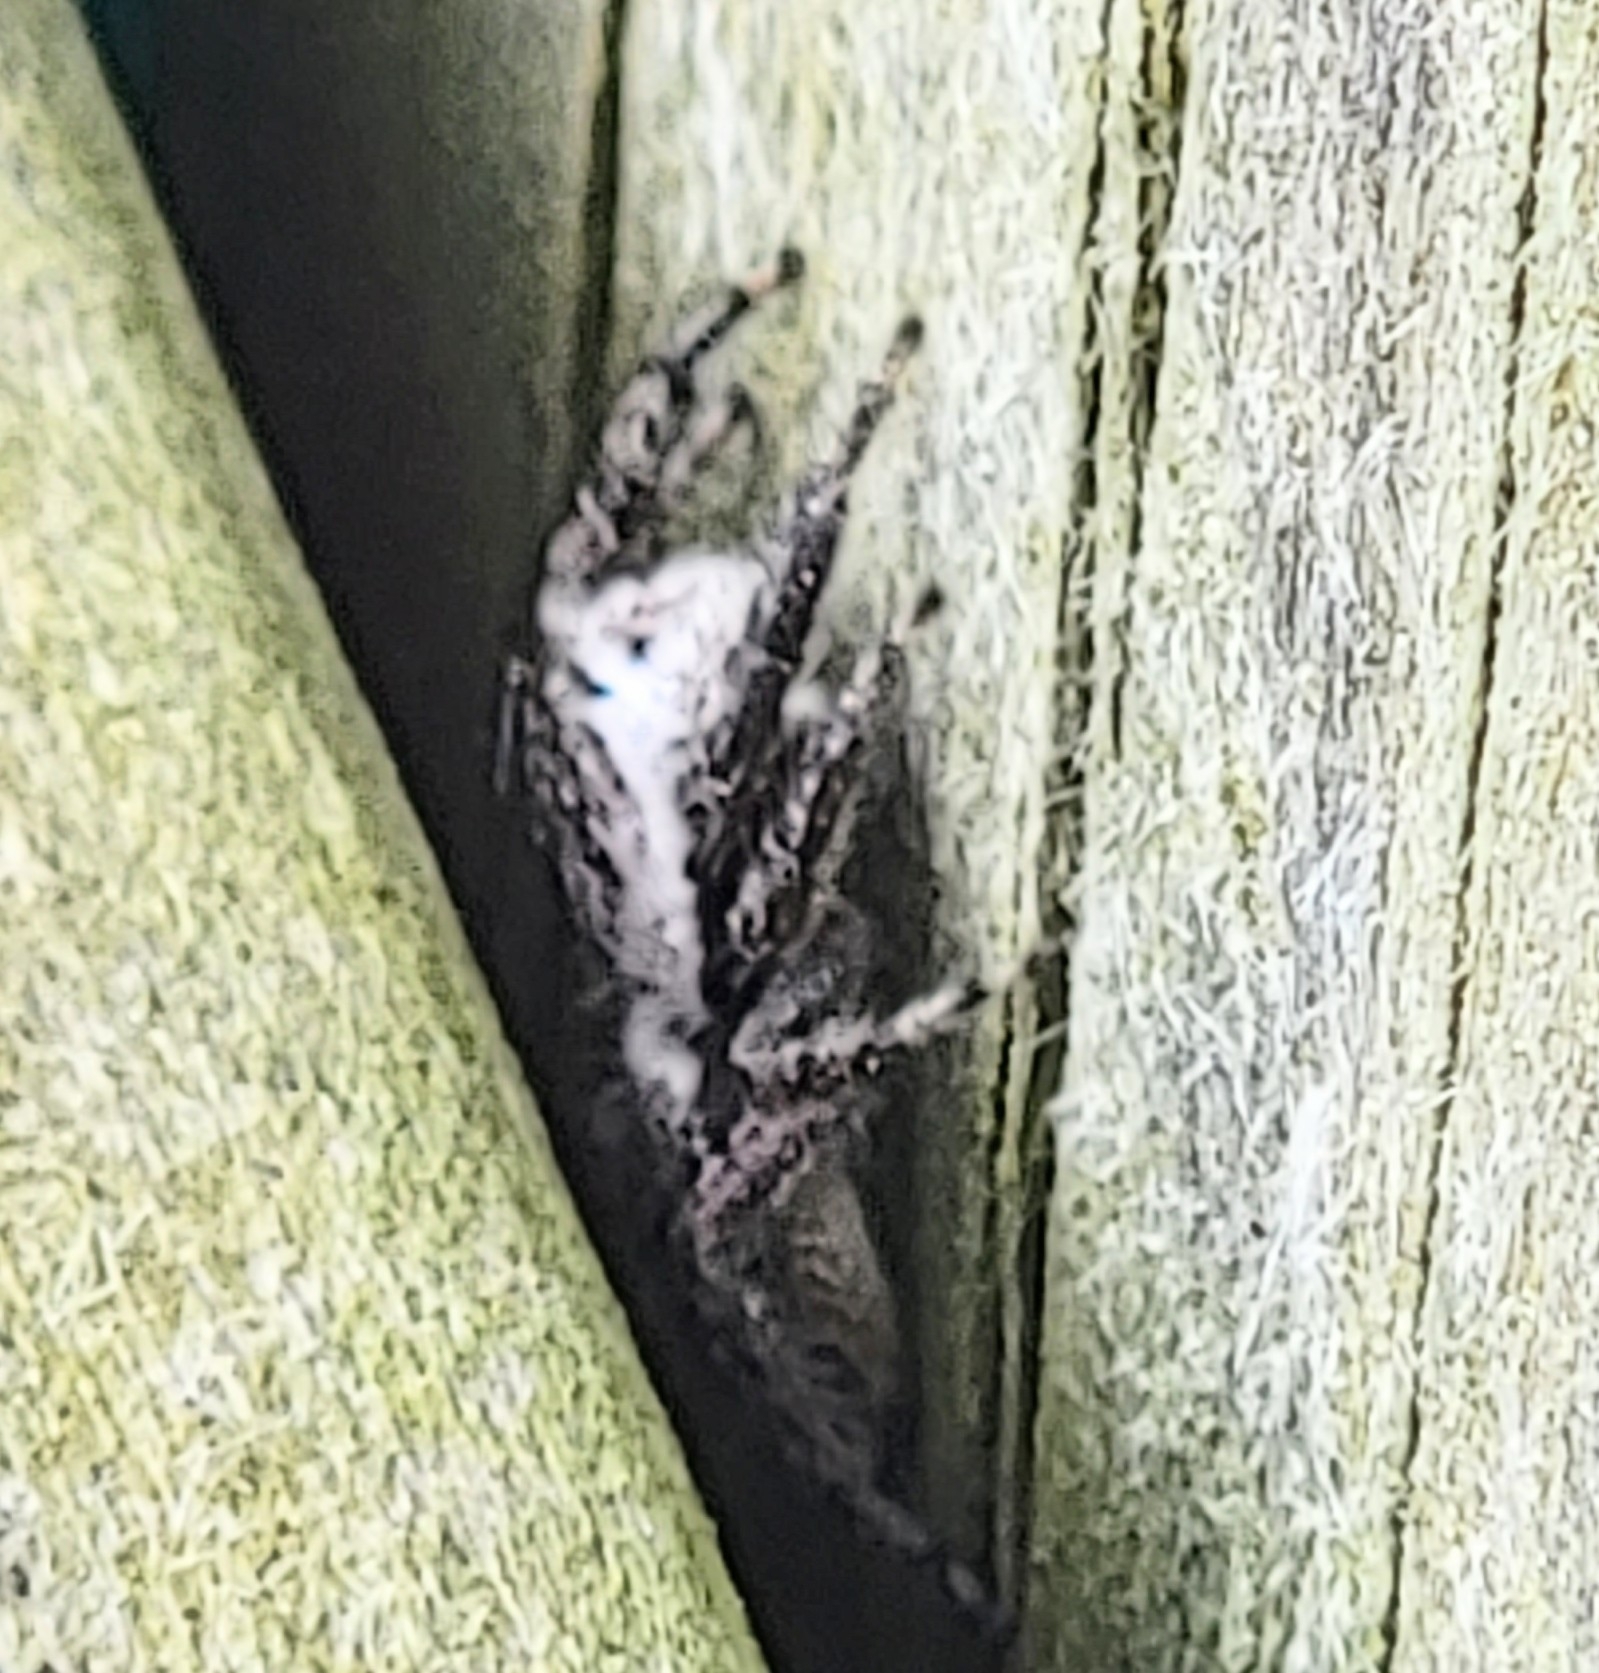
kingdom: Animalia
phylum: Arthropoda
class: Arachnida
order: Araneae
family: Salticidae
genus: Platycryptus
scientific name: Platycryptus undatus
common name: Tan jumping spider
